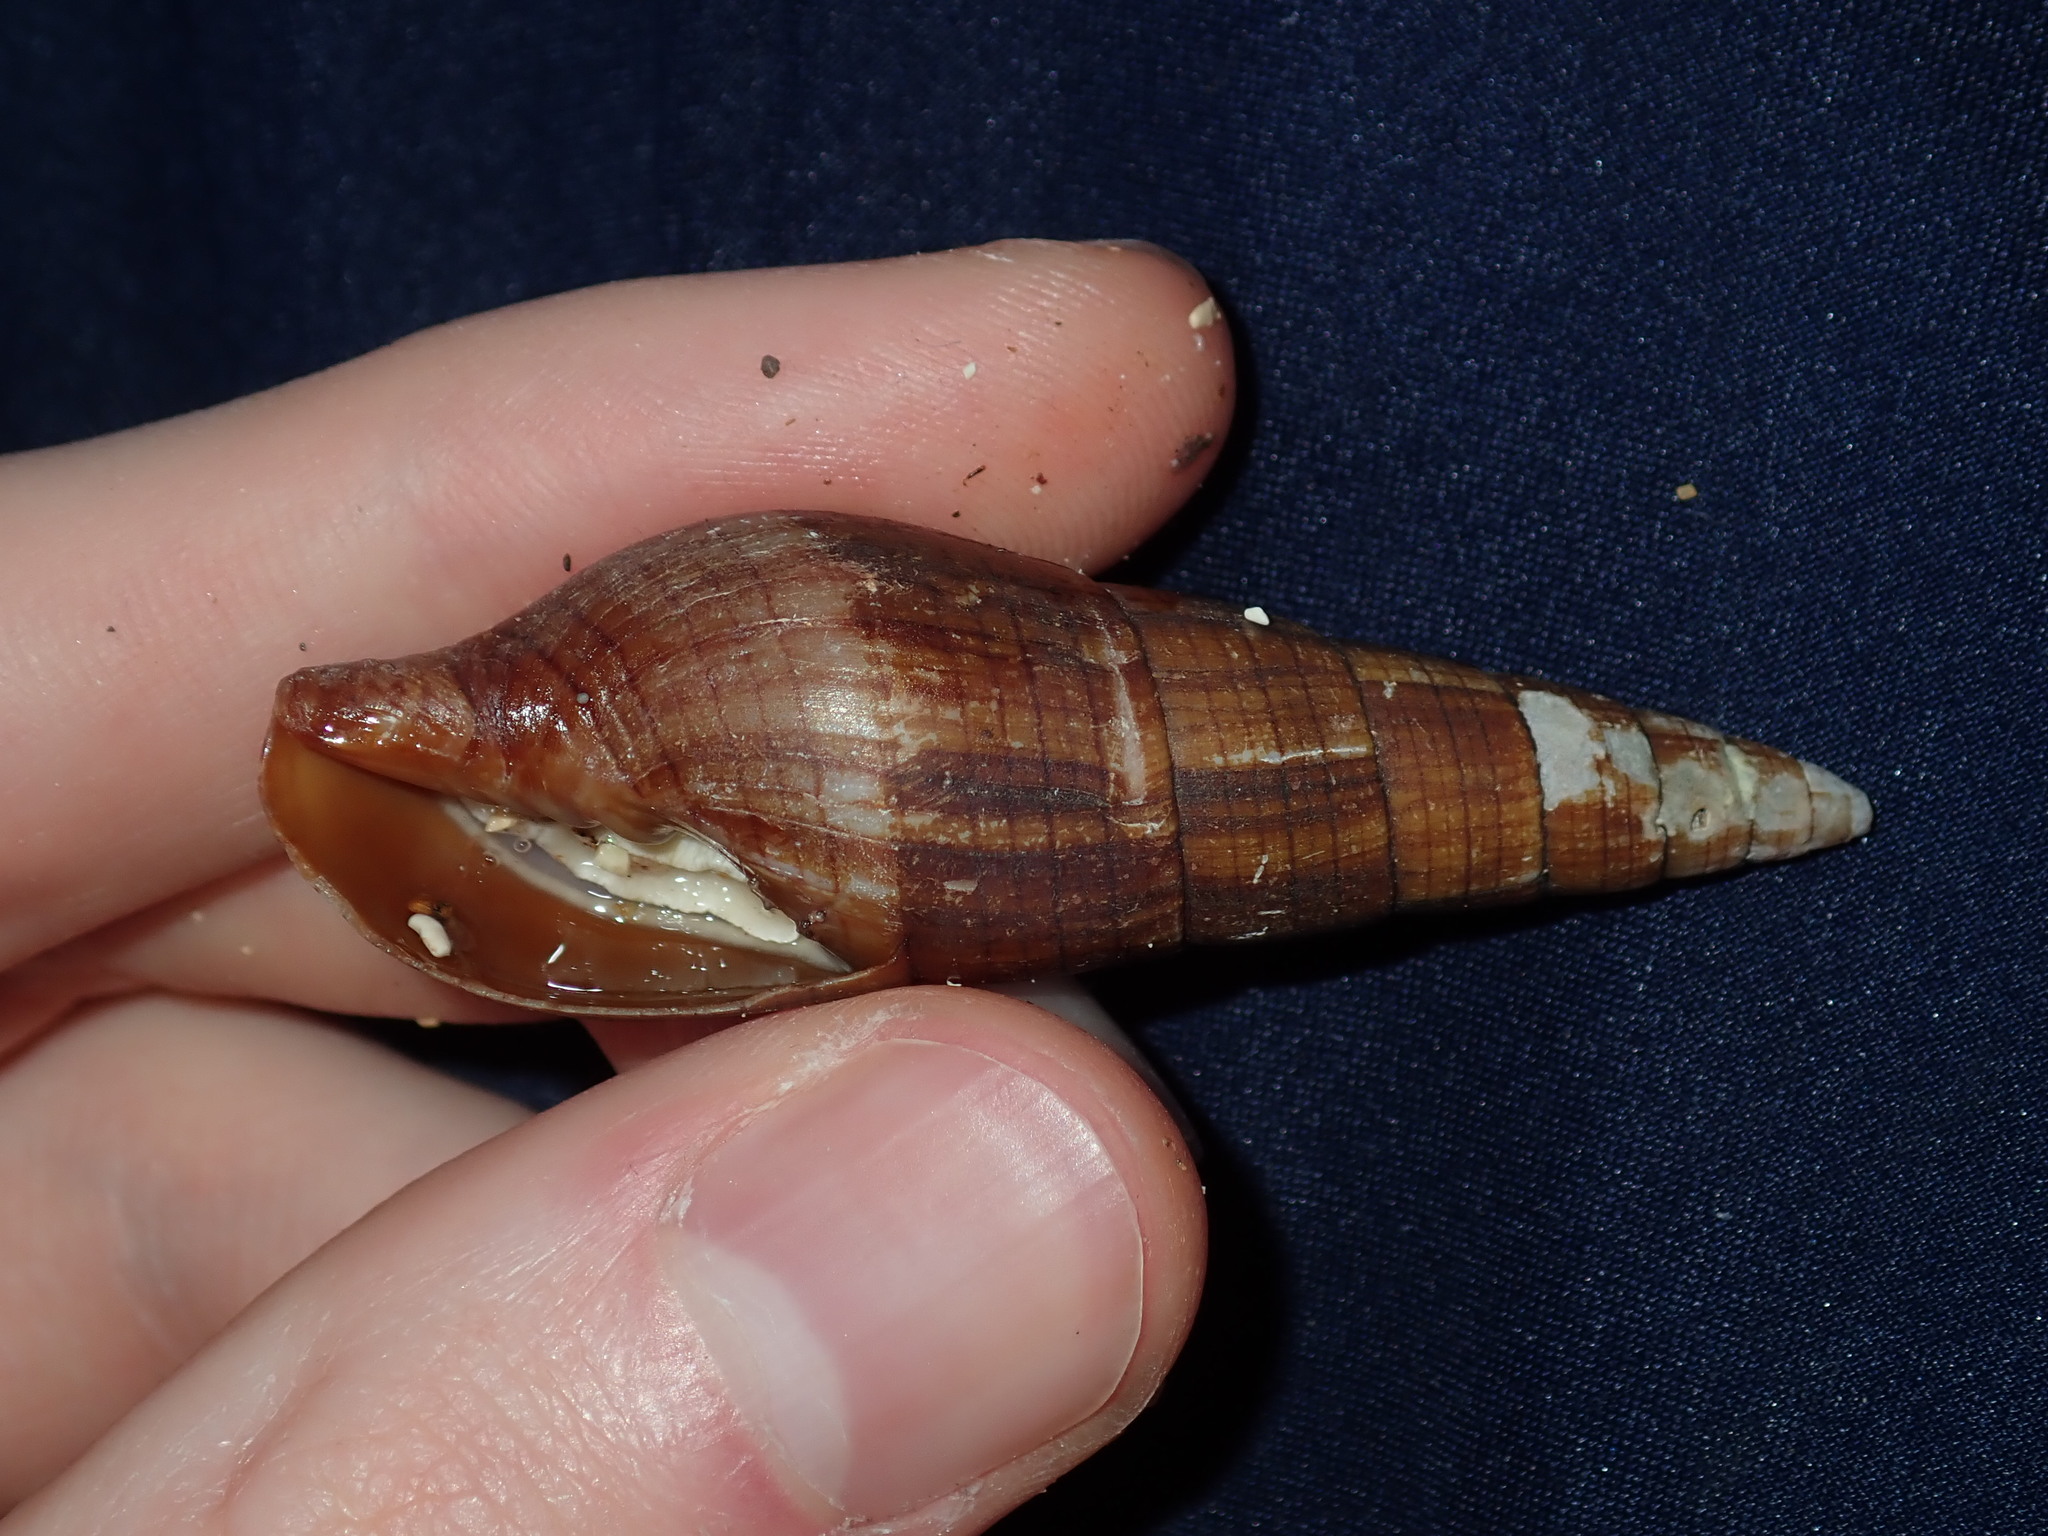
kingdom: Animalia
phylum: Mollusca
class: Gastropoda
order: Neogastropoda
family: Mitridae
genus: Isara
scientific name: Isara glabra
